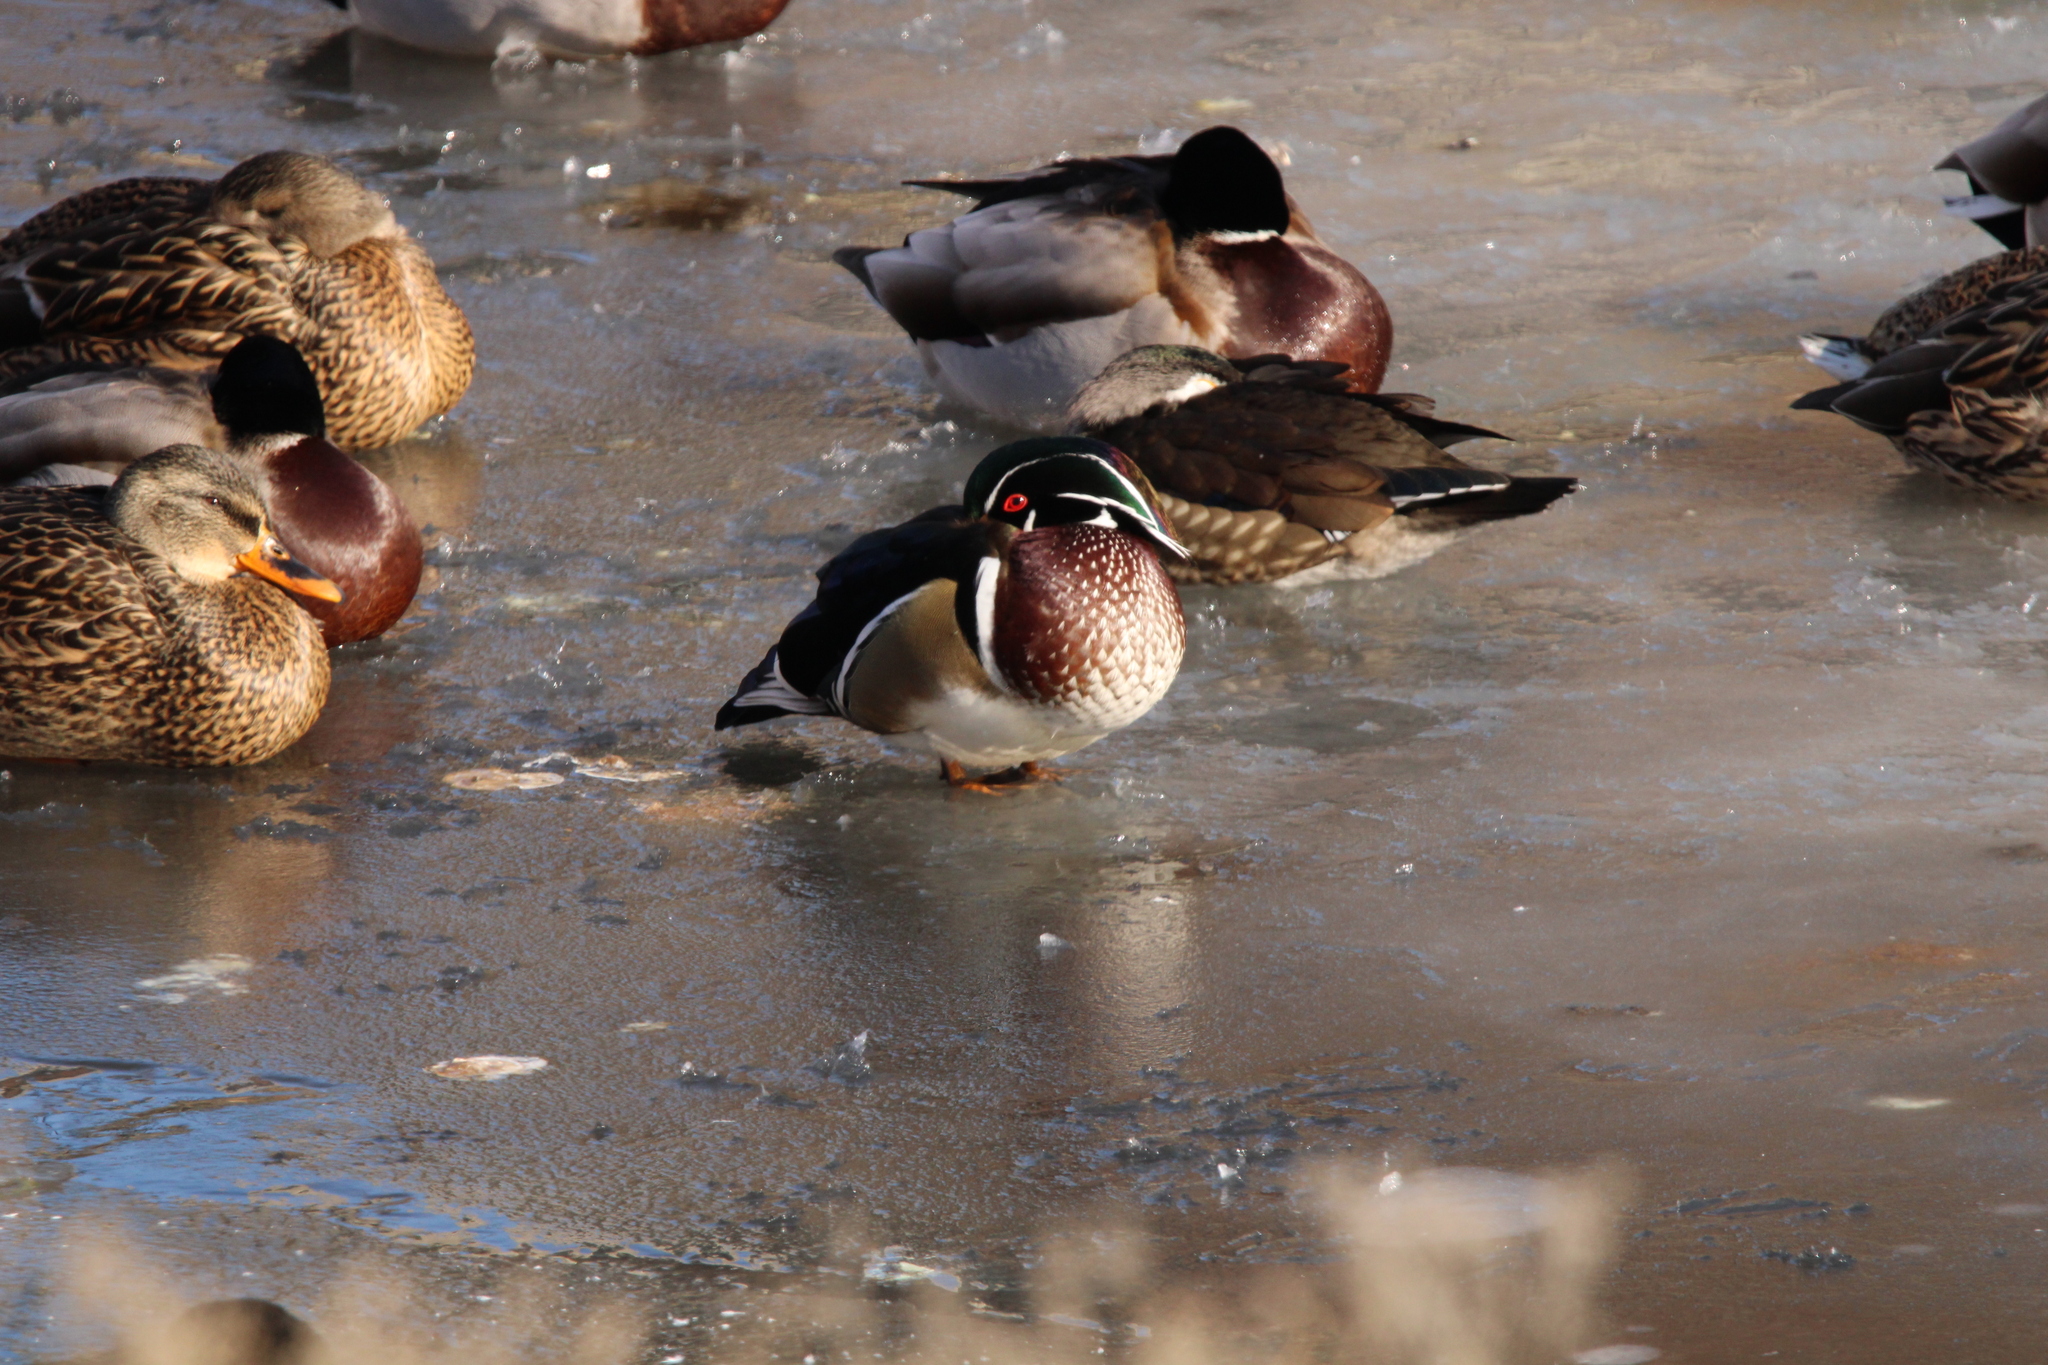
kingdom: Animalia
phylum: Chordata
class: Aves
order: Anseriformes
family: Anatidae
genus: Aix
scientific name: Aix sponsa
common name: Wood duck
